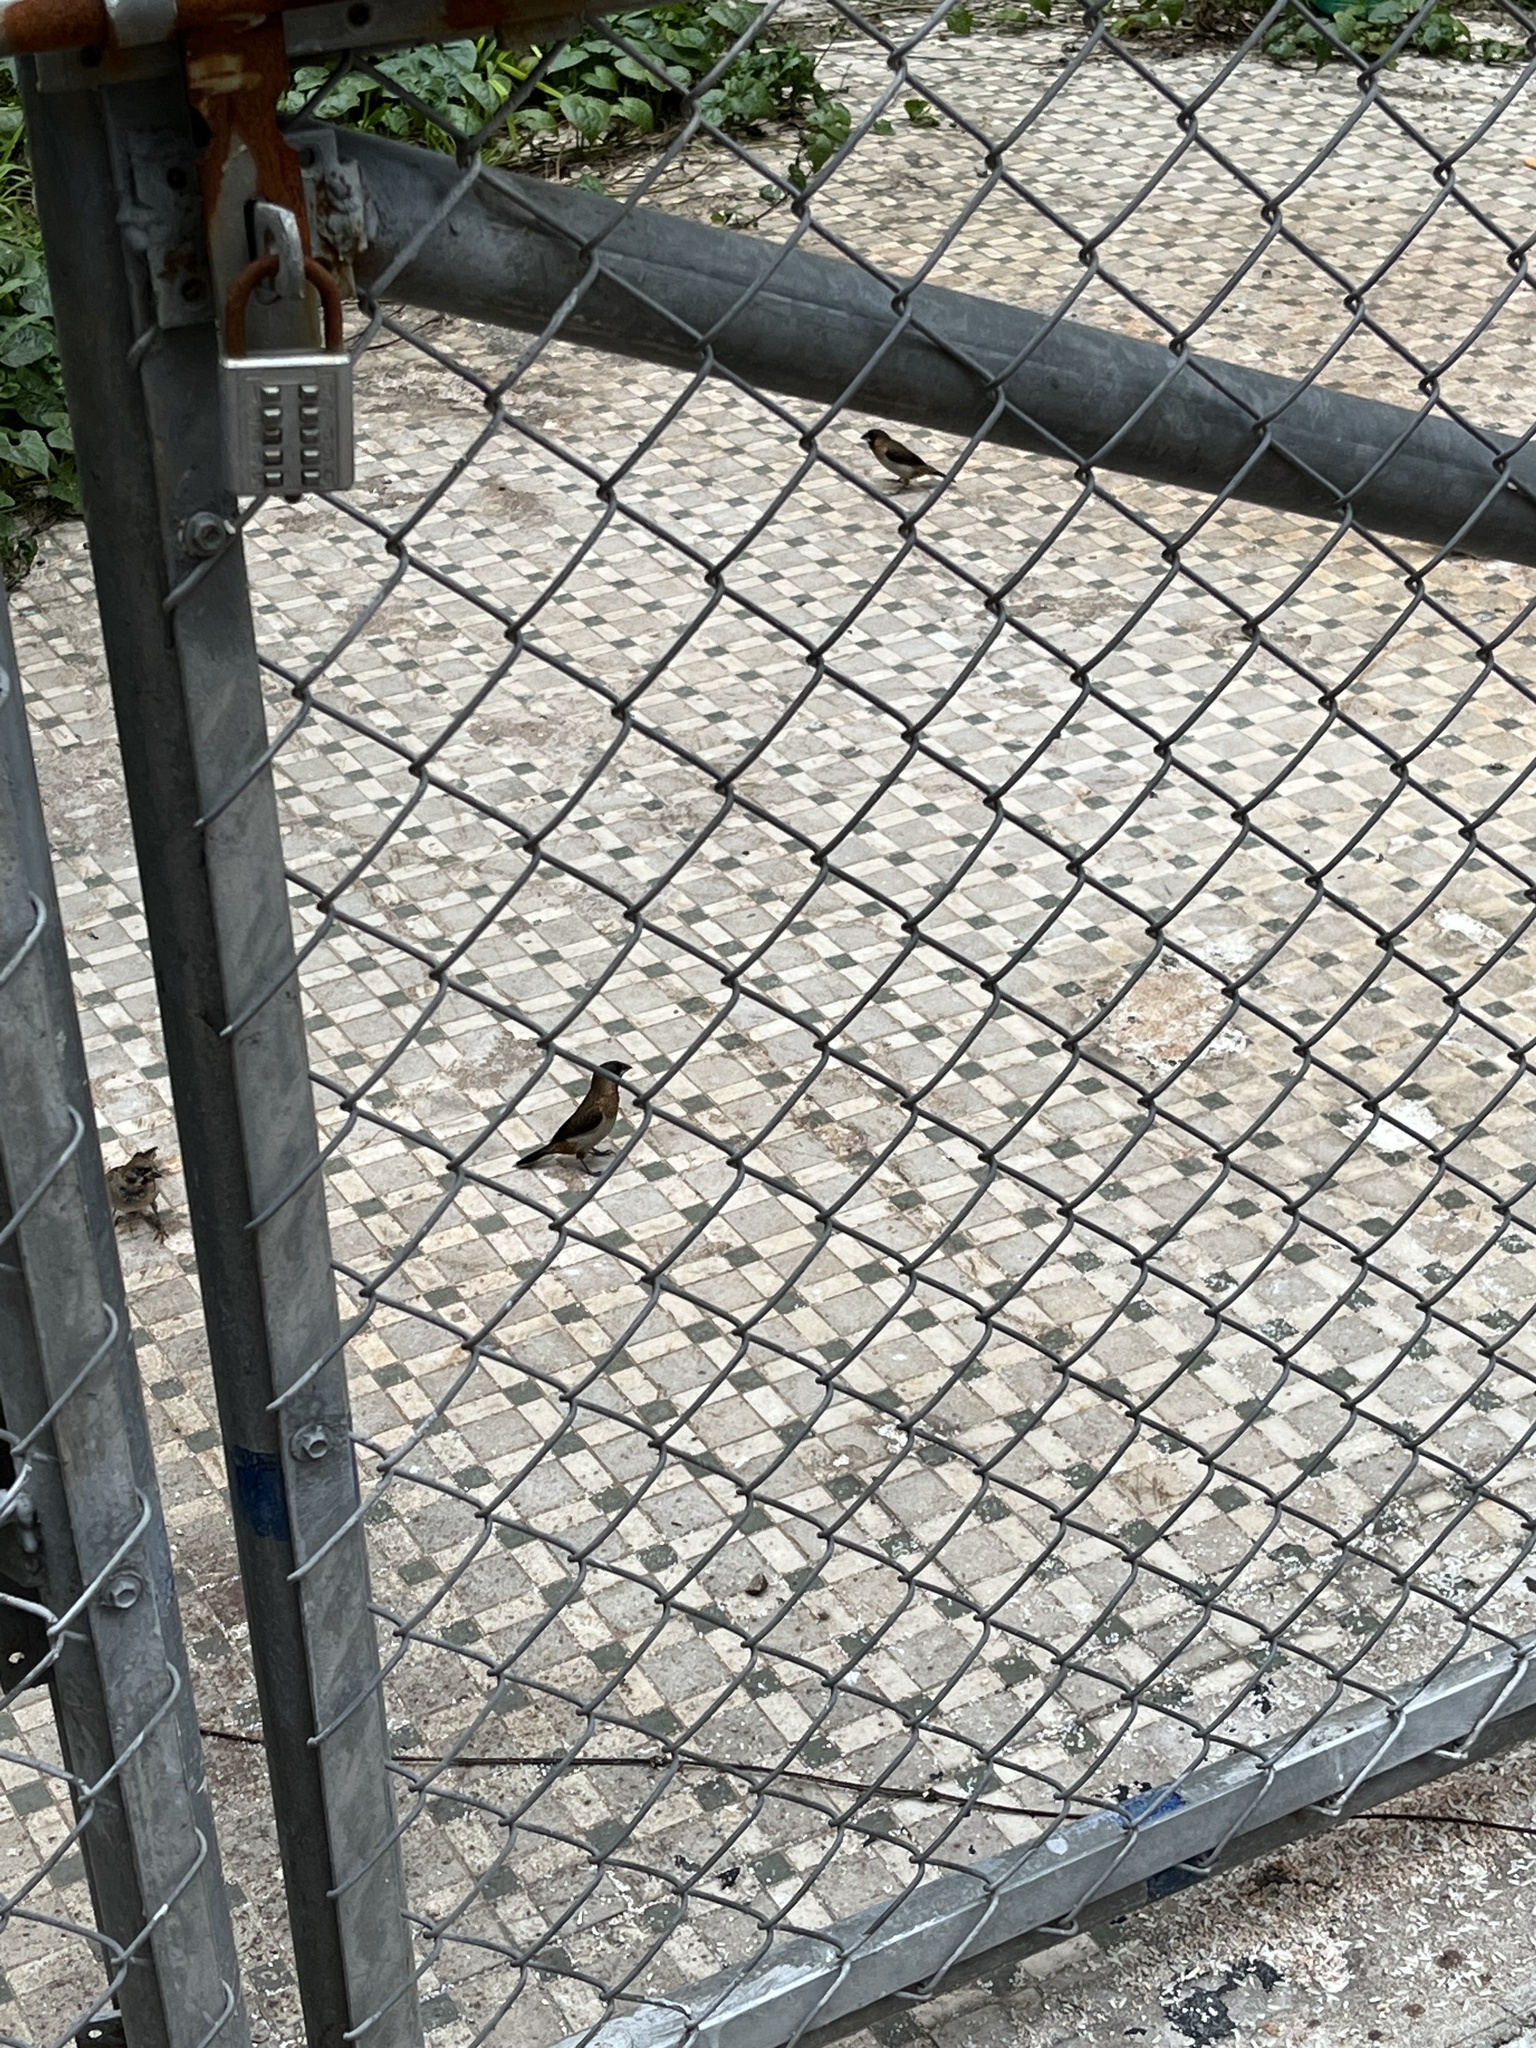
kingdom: Animalia
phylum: Chordata
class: Aves
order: Passeriformes
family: Estrildidae
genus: Lonchura
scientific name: Lonchura striata
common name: White-rumped munia
